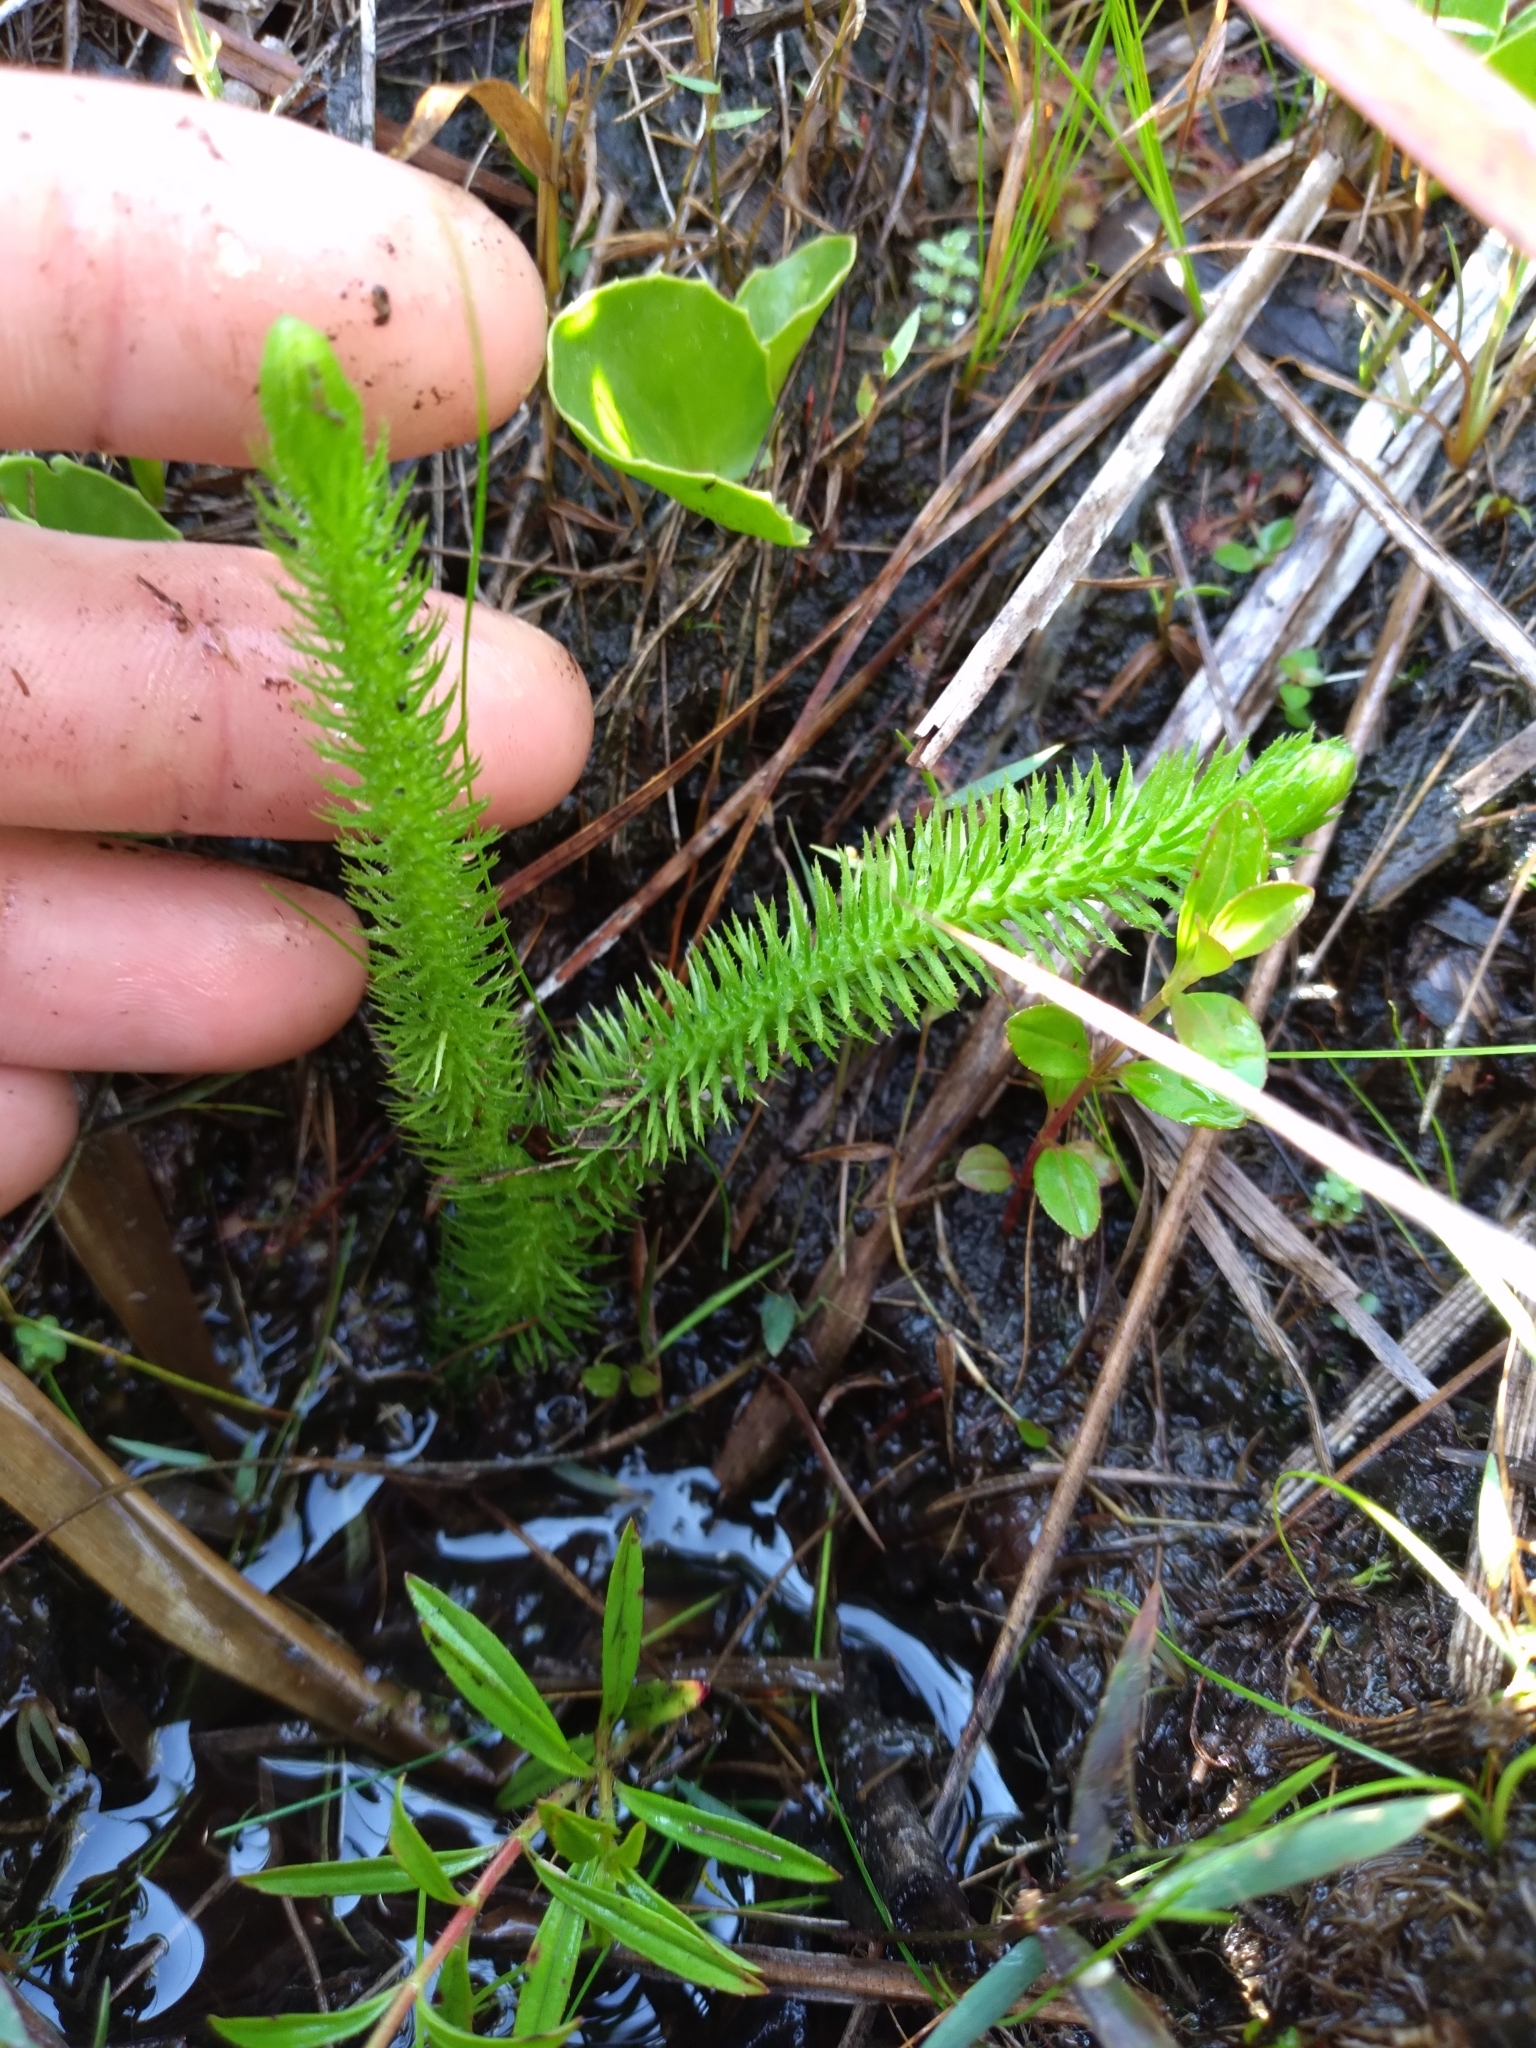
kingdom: Plantae
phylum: Tracheophyta
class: Lycopodiopsida
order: Lycopodiales
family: Lycopodiaceae
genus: Lycopodiella
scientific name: Lycopodiella alopecuroides
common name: Foxtail clubmoss
